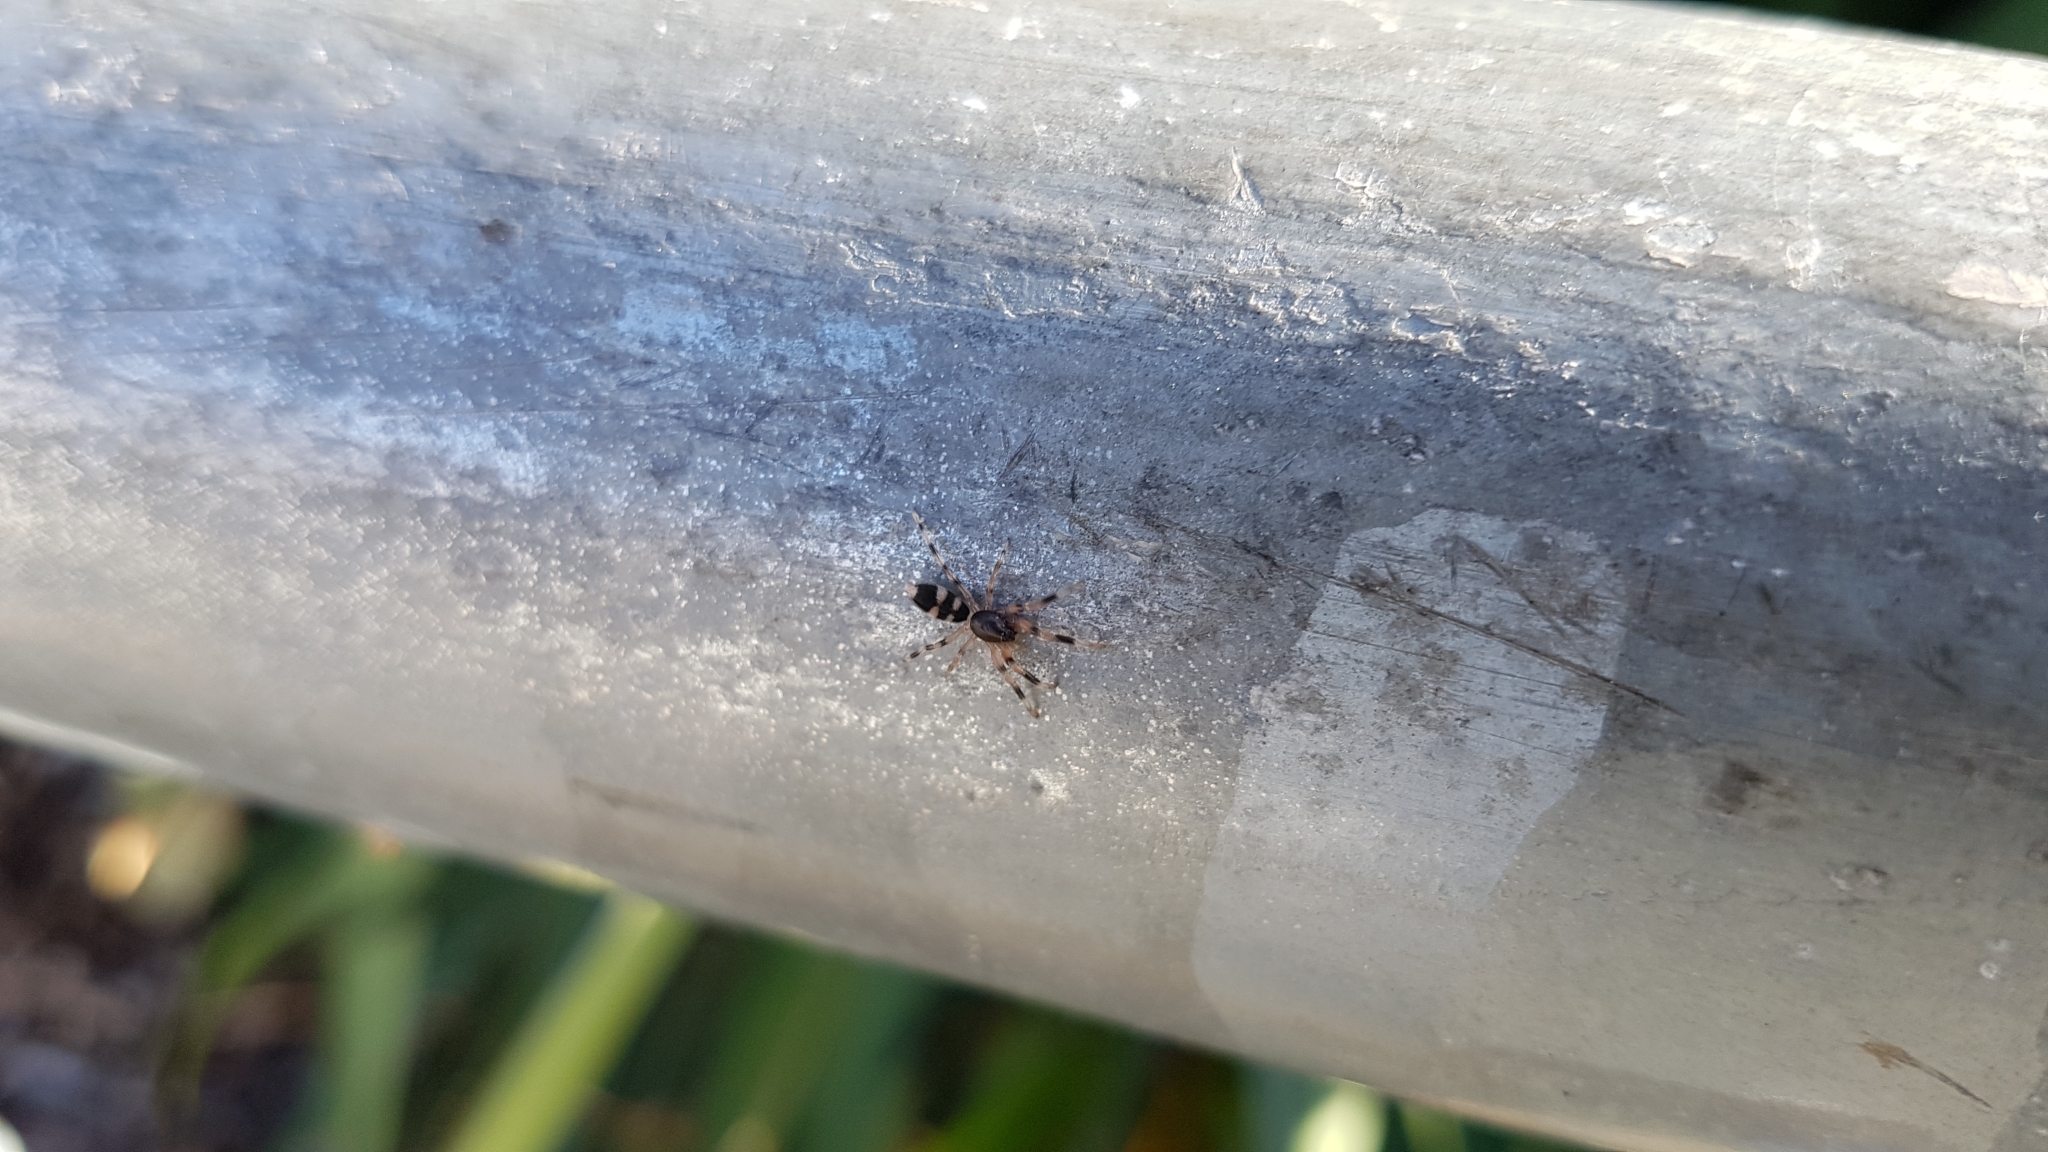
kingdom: Animalia
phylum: Arthropoda
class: Arachnida
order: Araneae
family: Lamponidae
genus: Lampona
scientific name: Lampona murina
